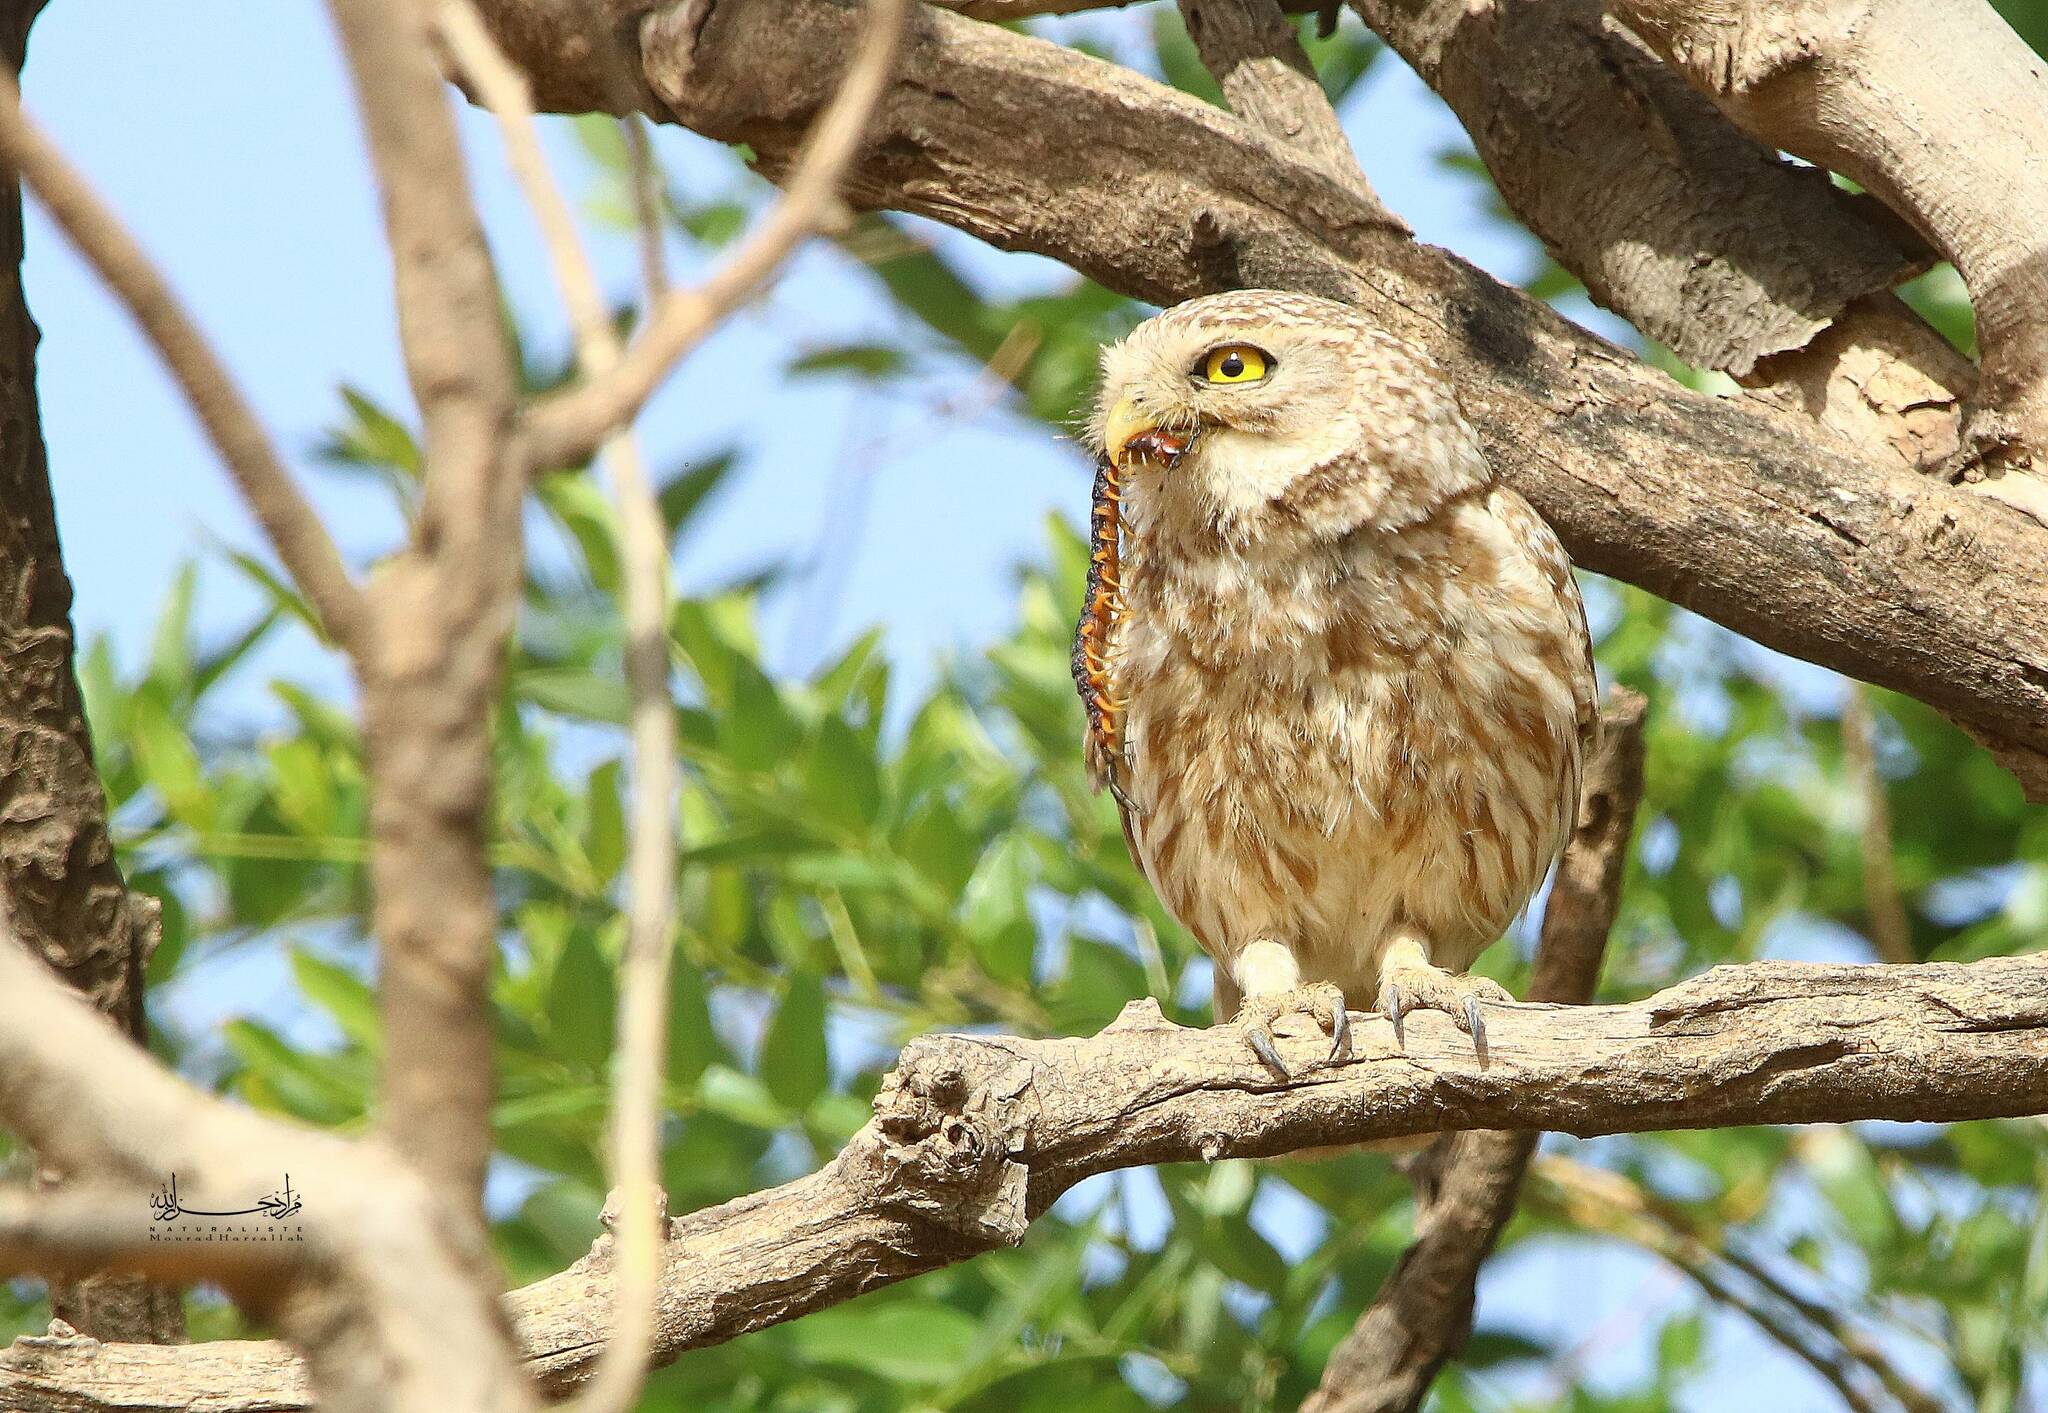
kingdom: Animalia
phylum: Chordata
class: Aves
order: Strigiformes
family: Strigidae
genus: Athene
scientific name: Athene noctua
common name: Little owl
